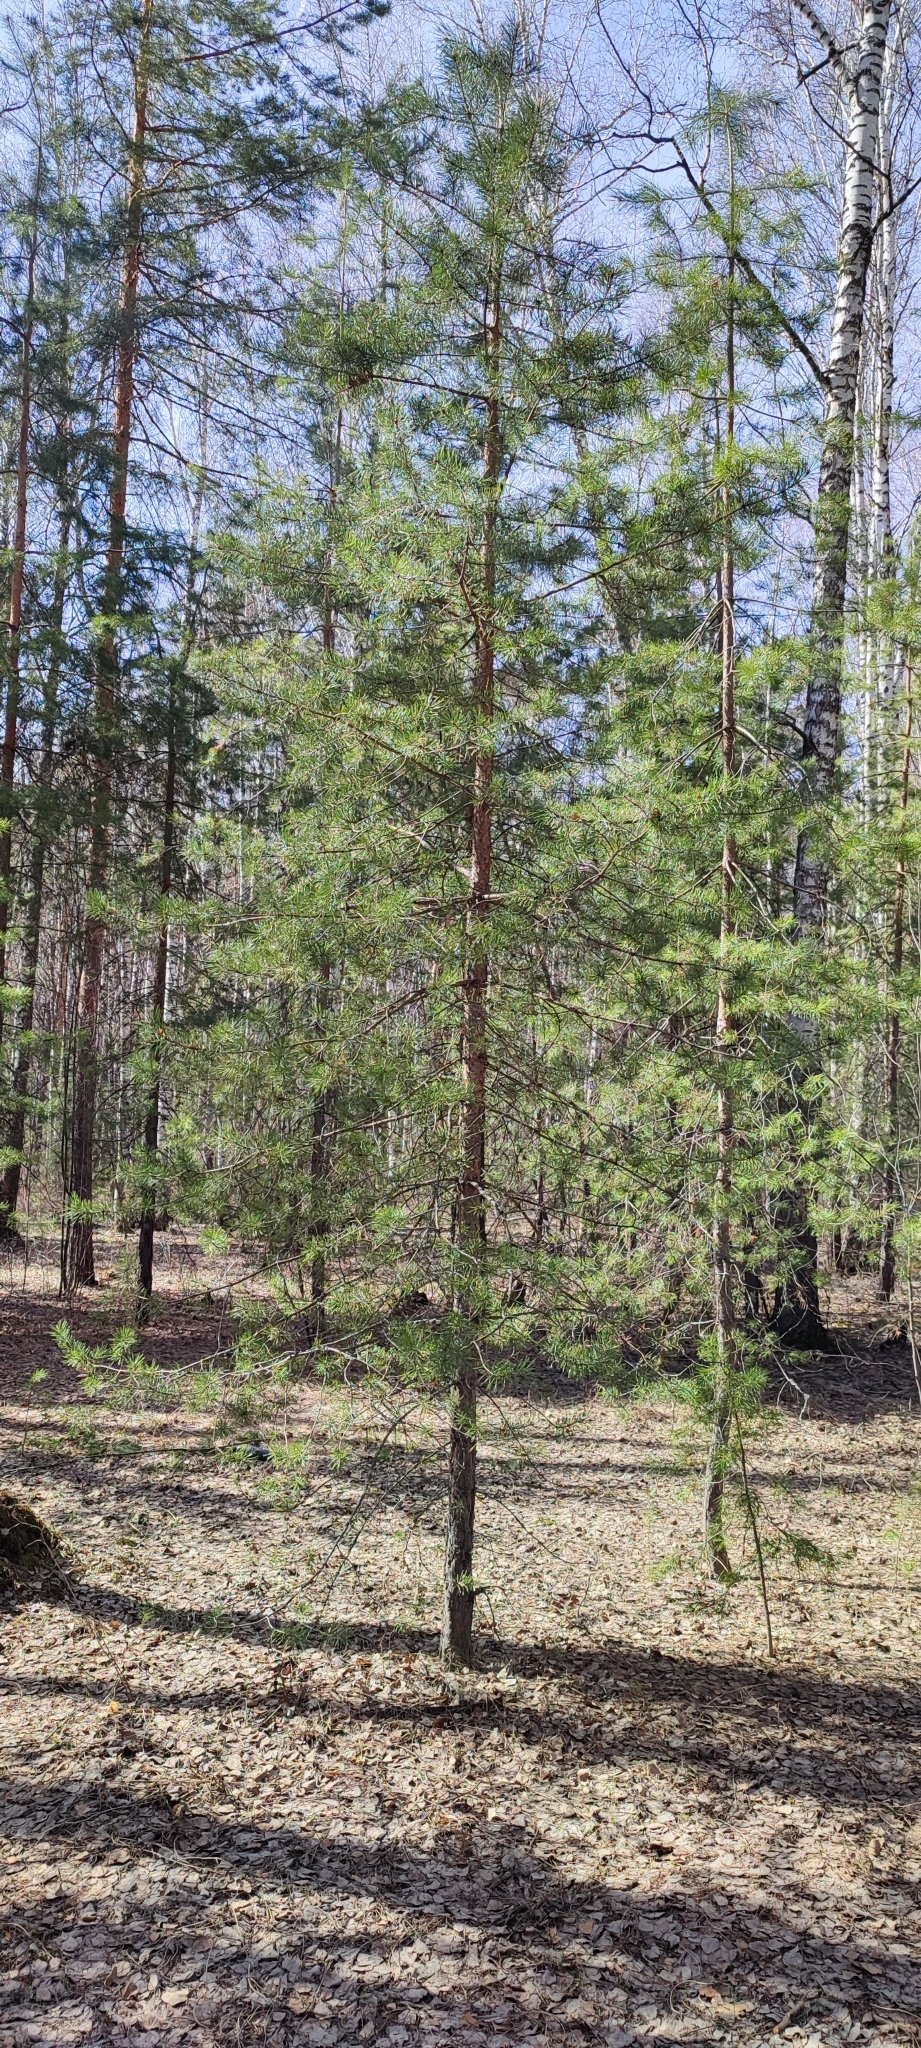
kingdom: Plantae
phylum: Tracheophyta
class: Pinopsida
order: Pinales
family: Pinaceae
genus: Pinus
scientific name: Pinus sylvestris
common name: Scots pine
